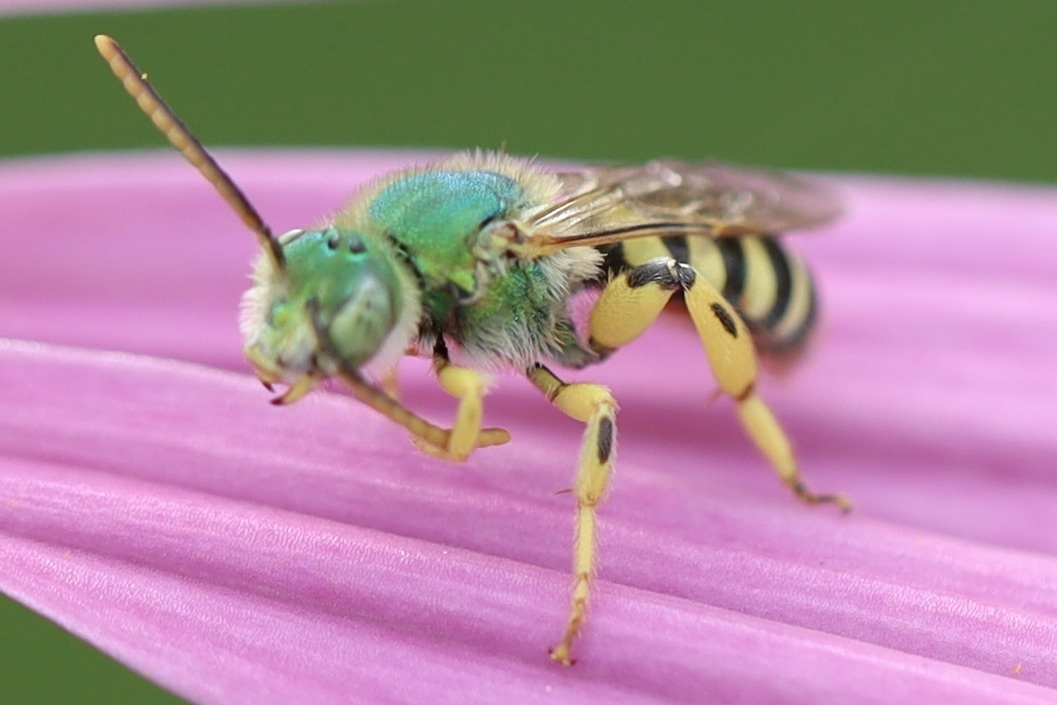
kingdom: Animalia
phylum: Arthropoda
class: Insecta
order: Hymenoptera
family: Halictidae
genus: Agapostemon
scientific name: Agapostemon texanus
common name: Texas striped sweat bee
